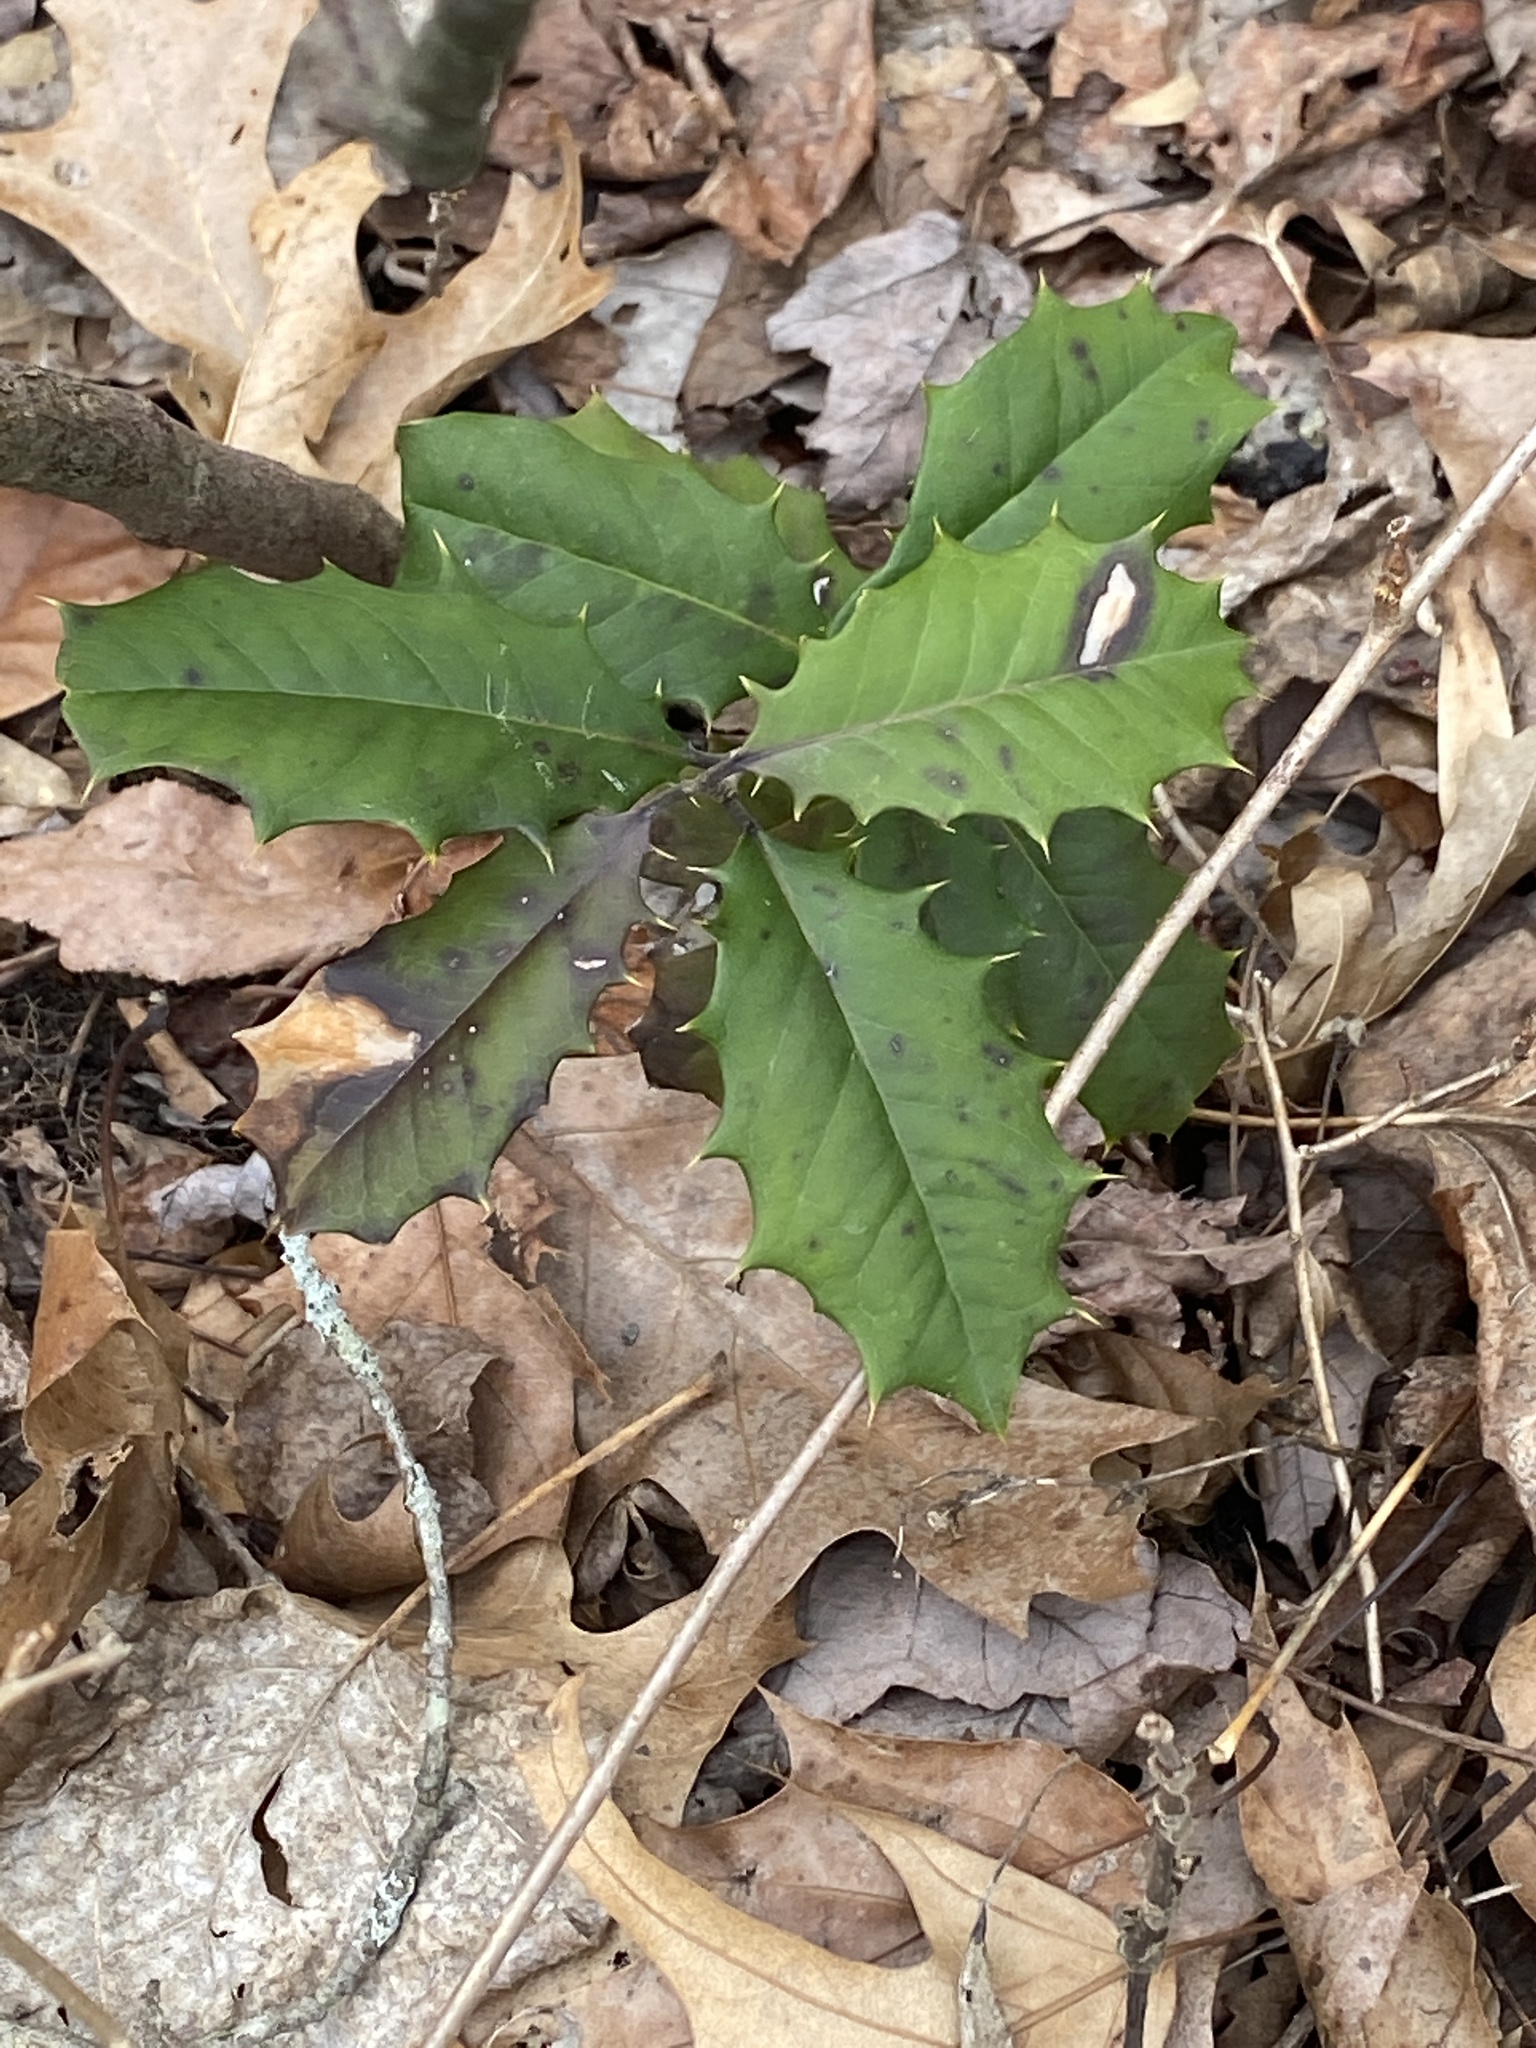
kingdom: Plantae
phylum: Tracheophyta
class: Magnoliopsida
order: Aquifoliales
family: Aquifoliaceae
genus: Ilex
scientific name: Ilex opaca
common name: American holly
